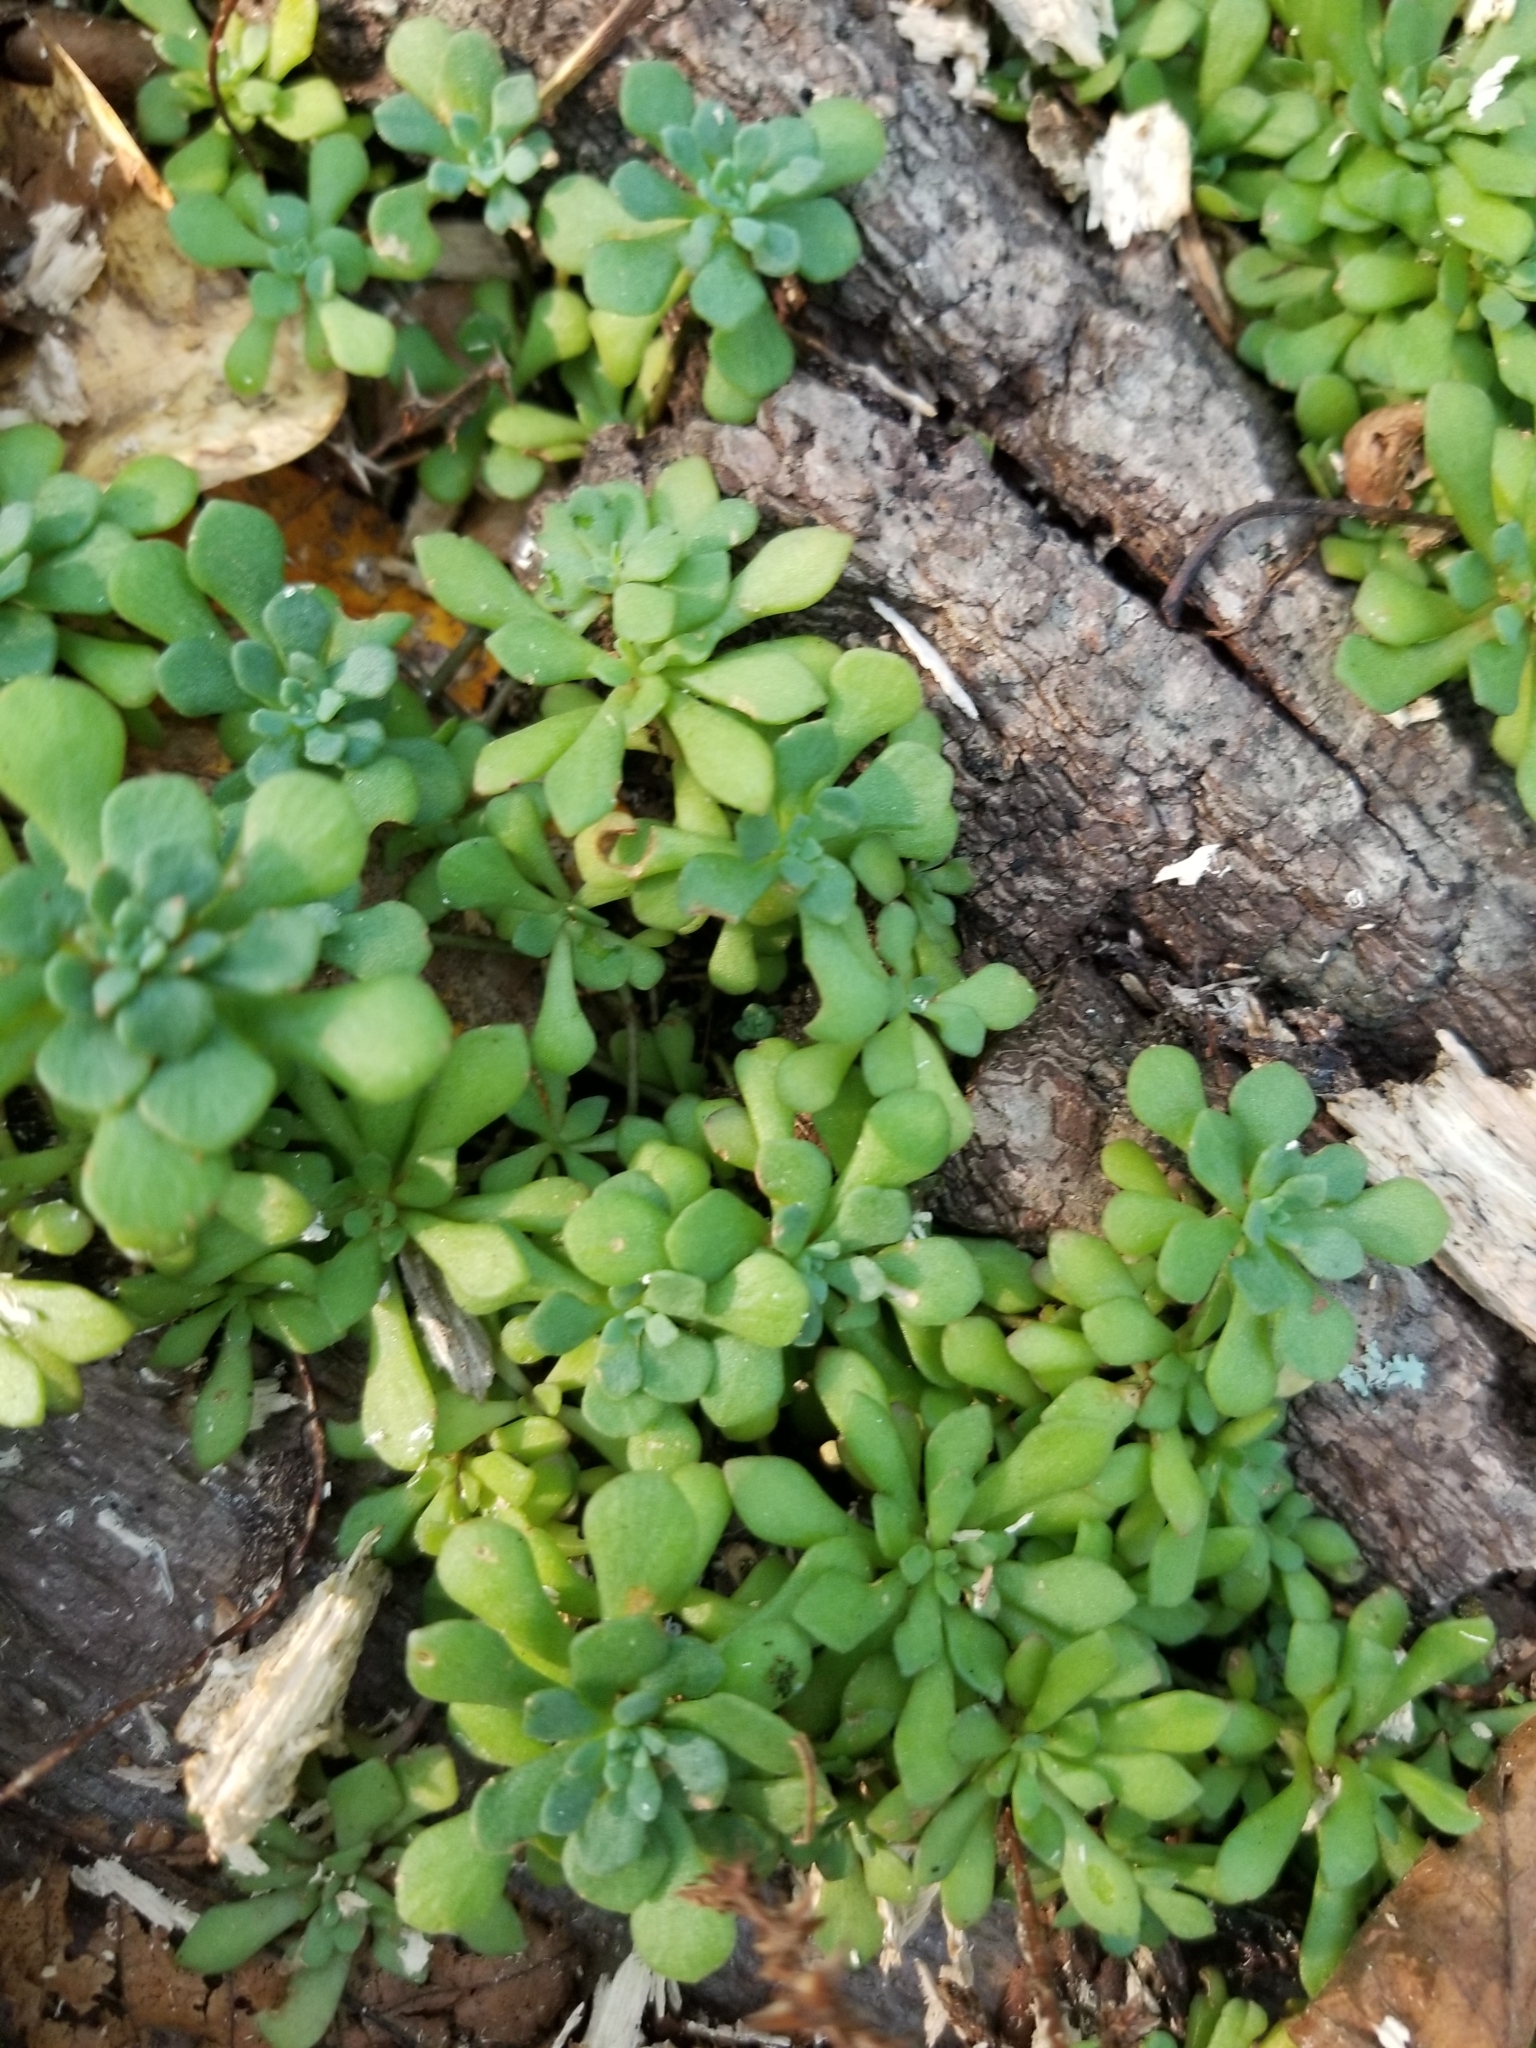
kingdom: Plantae
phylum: Tracheophyta
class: Magnoliopsida
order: Saxifragales
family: Crassulaceae
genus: Sedum
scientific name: Sedum glaucophyllum
